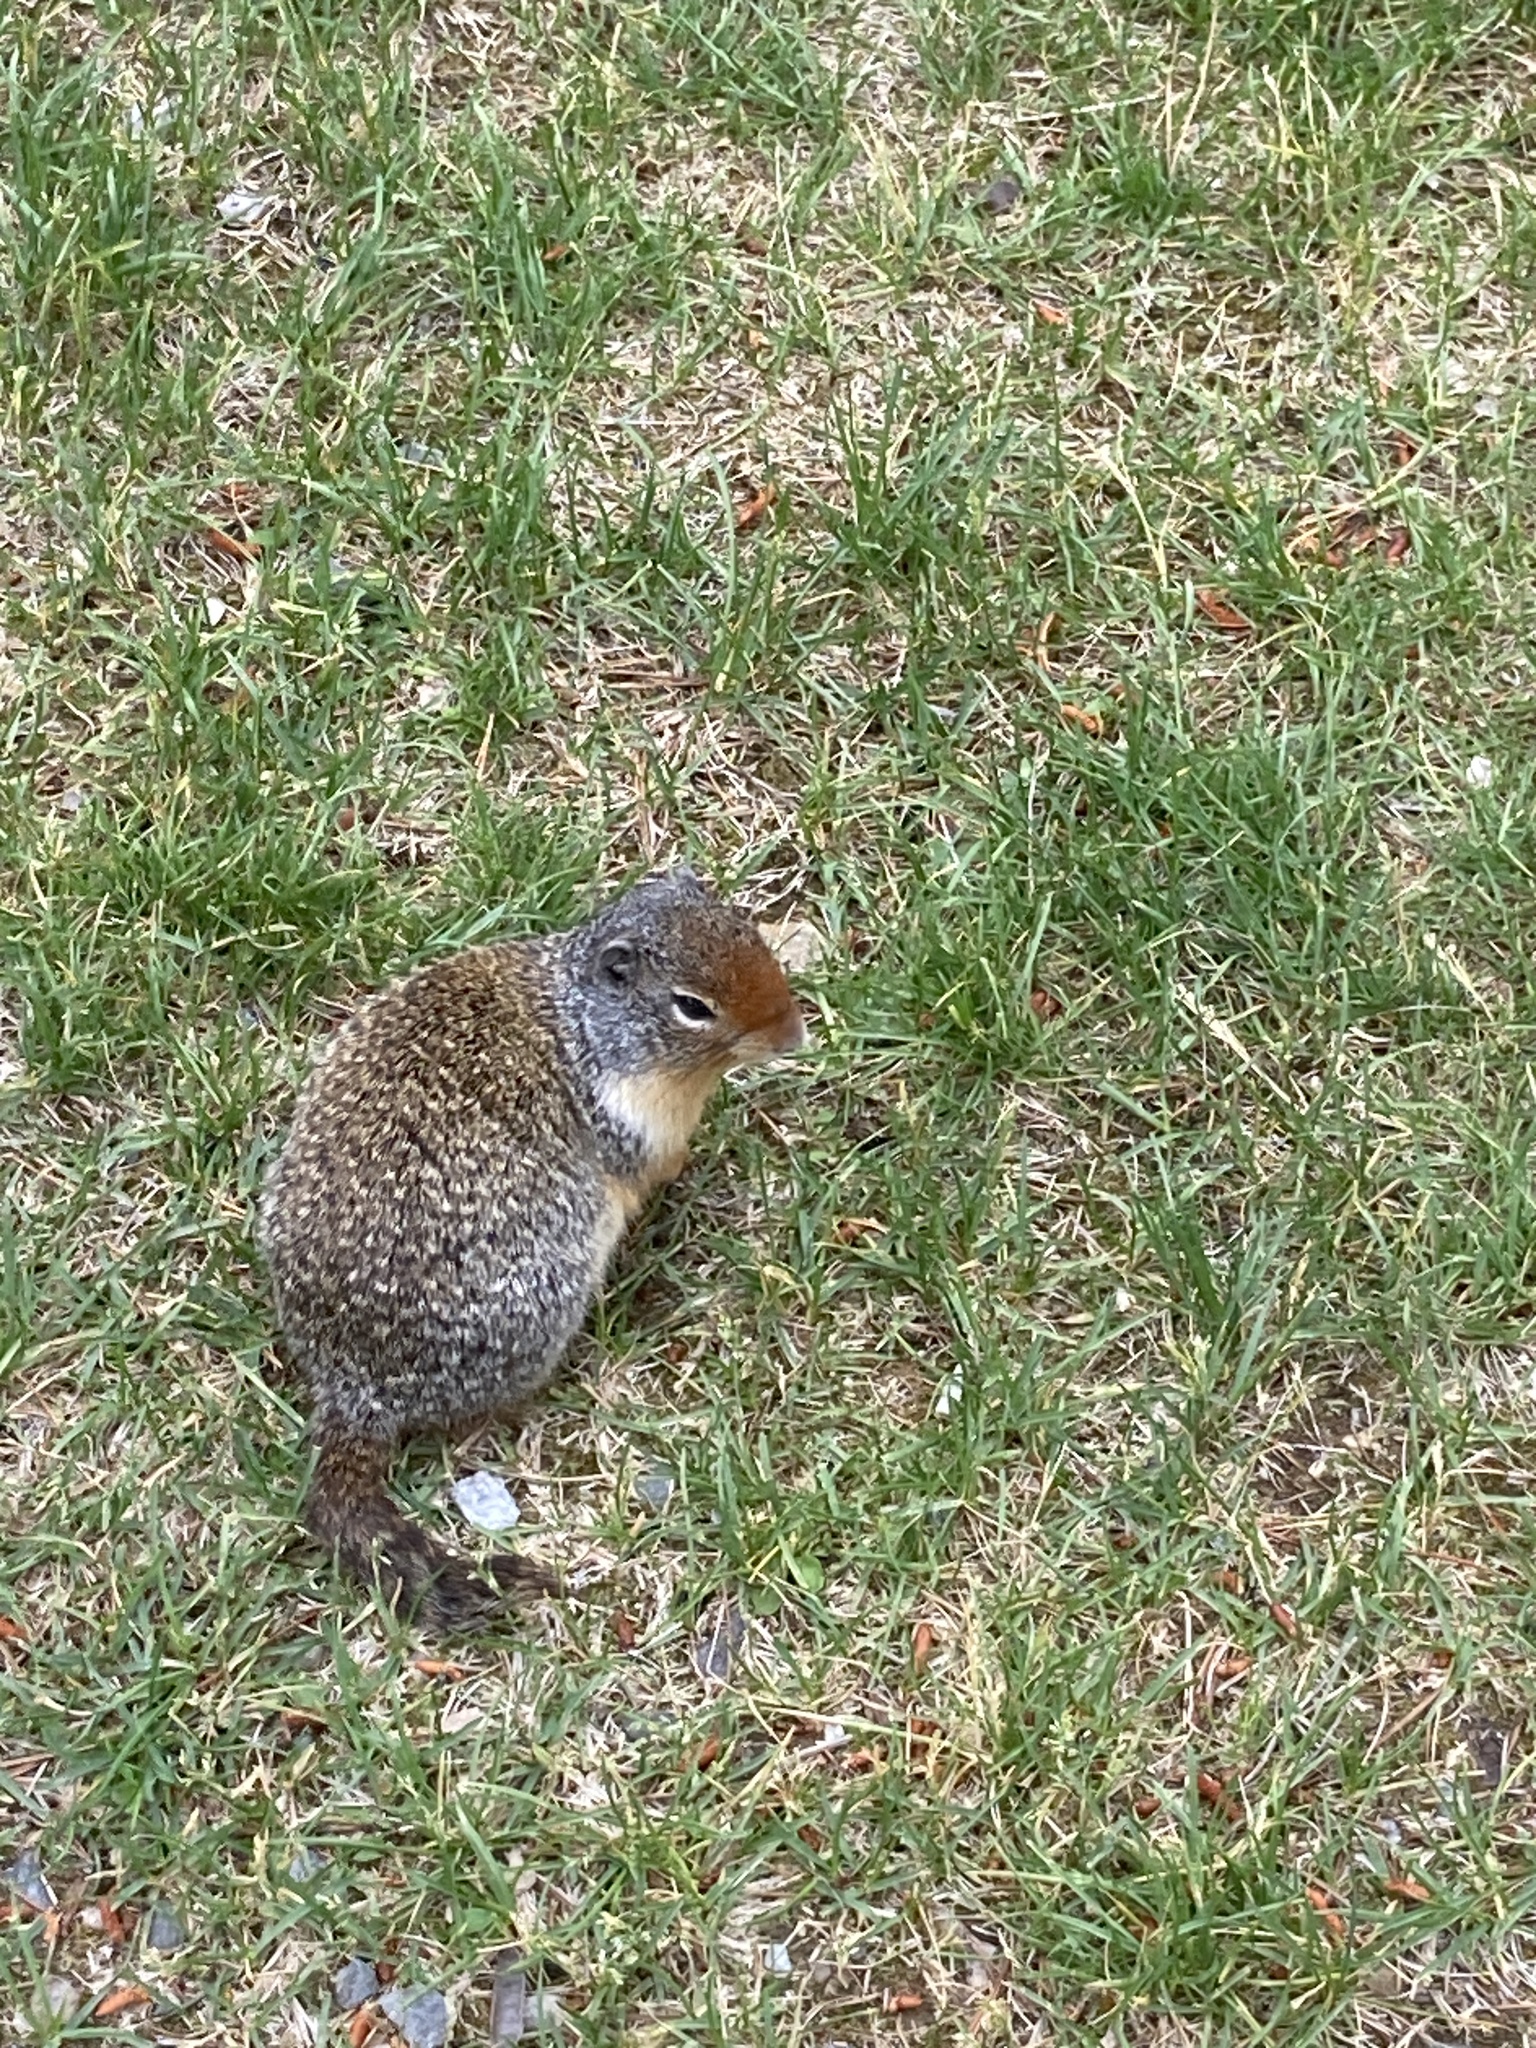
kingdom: Animalia
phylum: Chordata
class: Mammalia
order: Rodentia
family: Sciuridae
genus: Urocitellus
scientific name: Urocitellus columbianus
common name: Columbian ground squirrel
